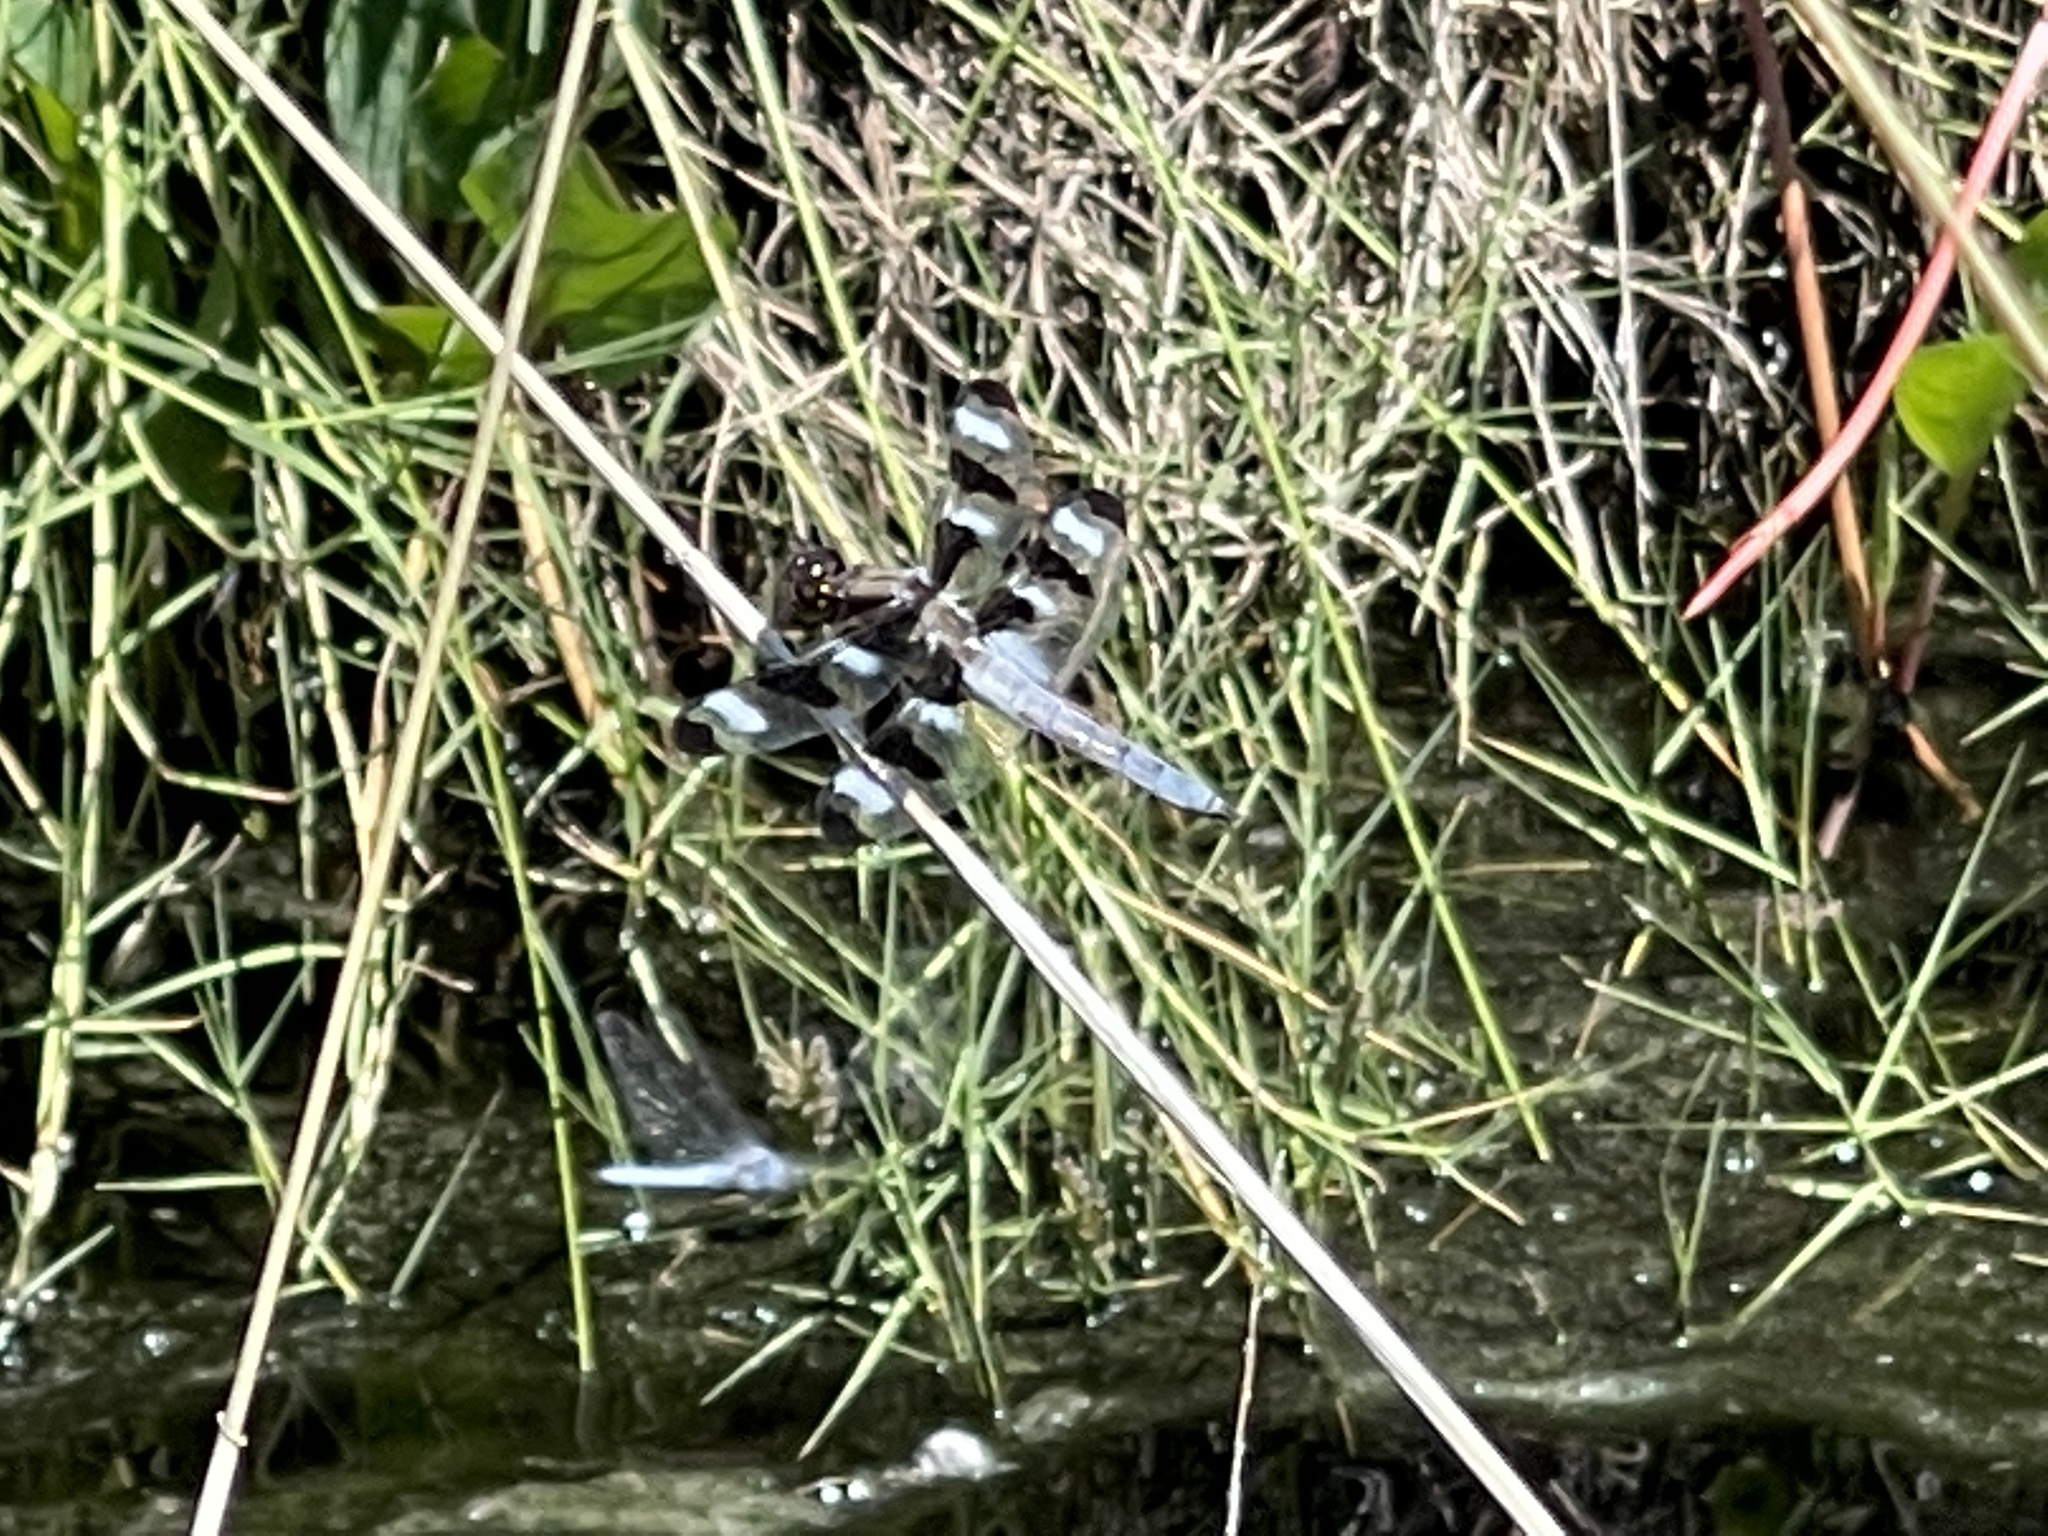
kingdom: Animalia
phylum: Arthropoda
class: Insecta
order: Odonata
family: Libellulidae
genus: Libellula
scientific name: Libellula pulchella
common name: Twelve-spotted skimmer
